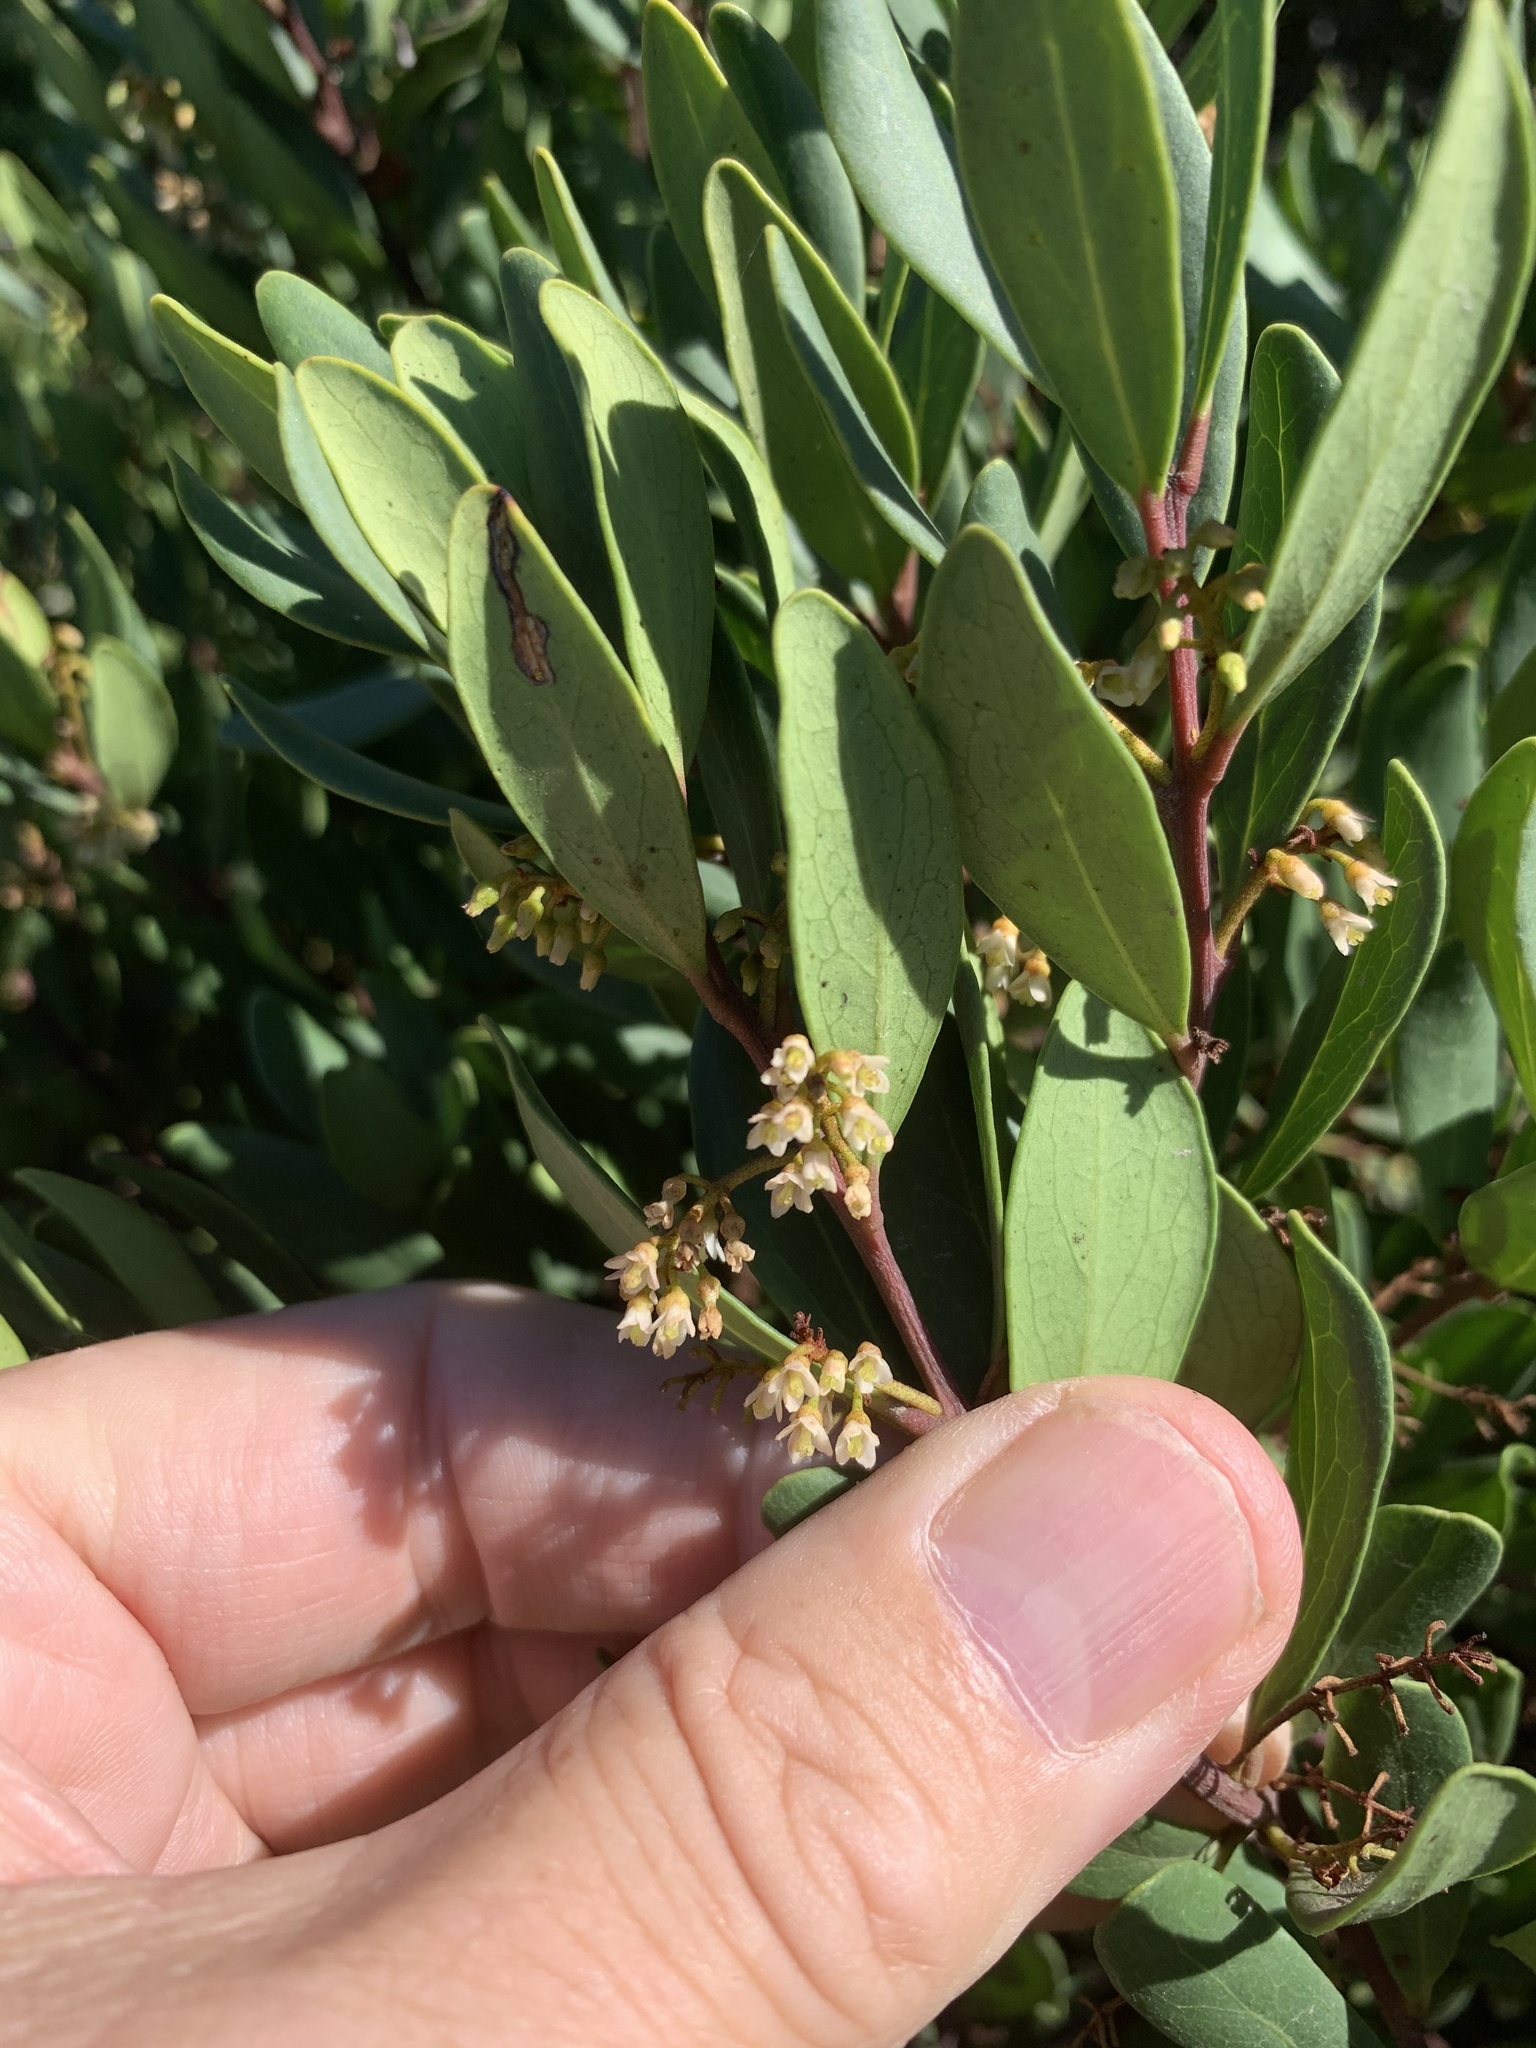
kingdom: Plantae
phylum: Tracheophyta
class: Magnoliopsida
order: Ericales
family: Ebenaceae
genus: Euclea
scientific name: Euclea racemosa
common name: Dune guarri
